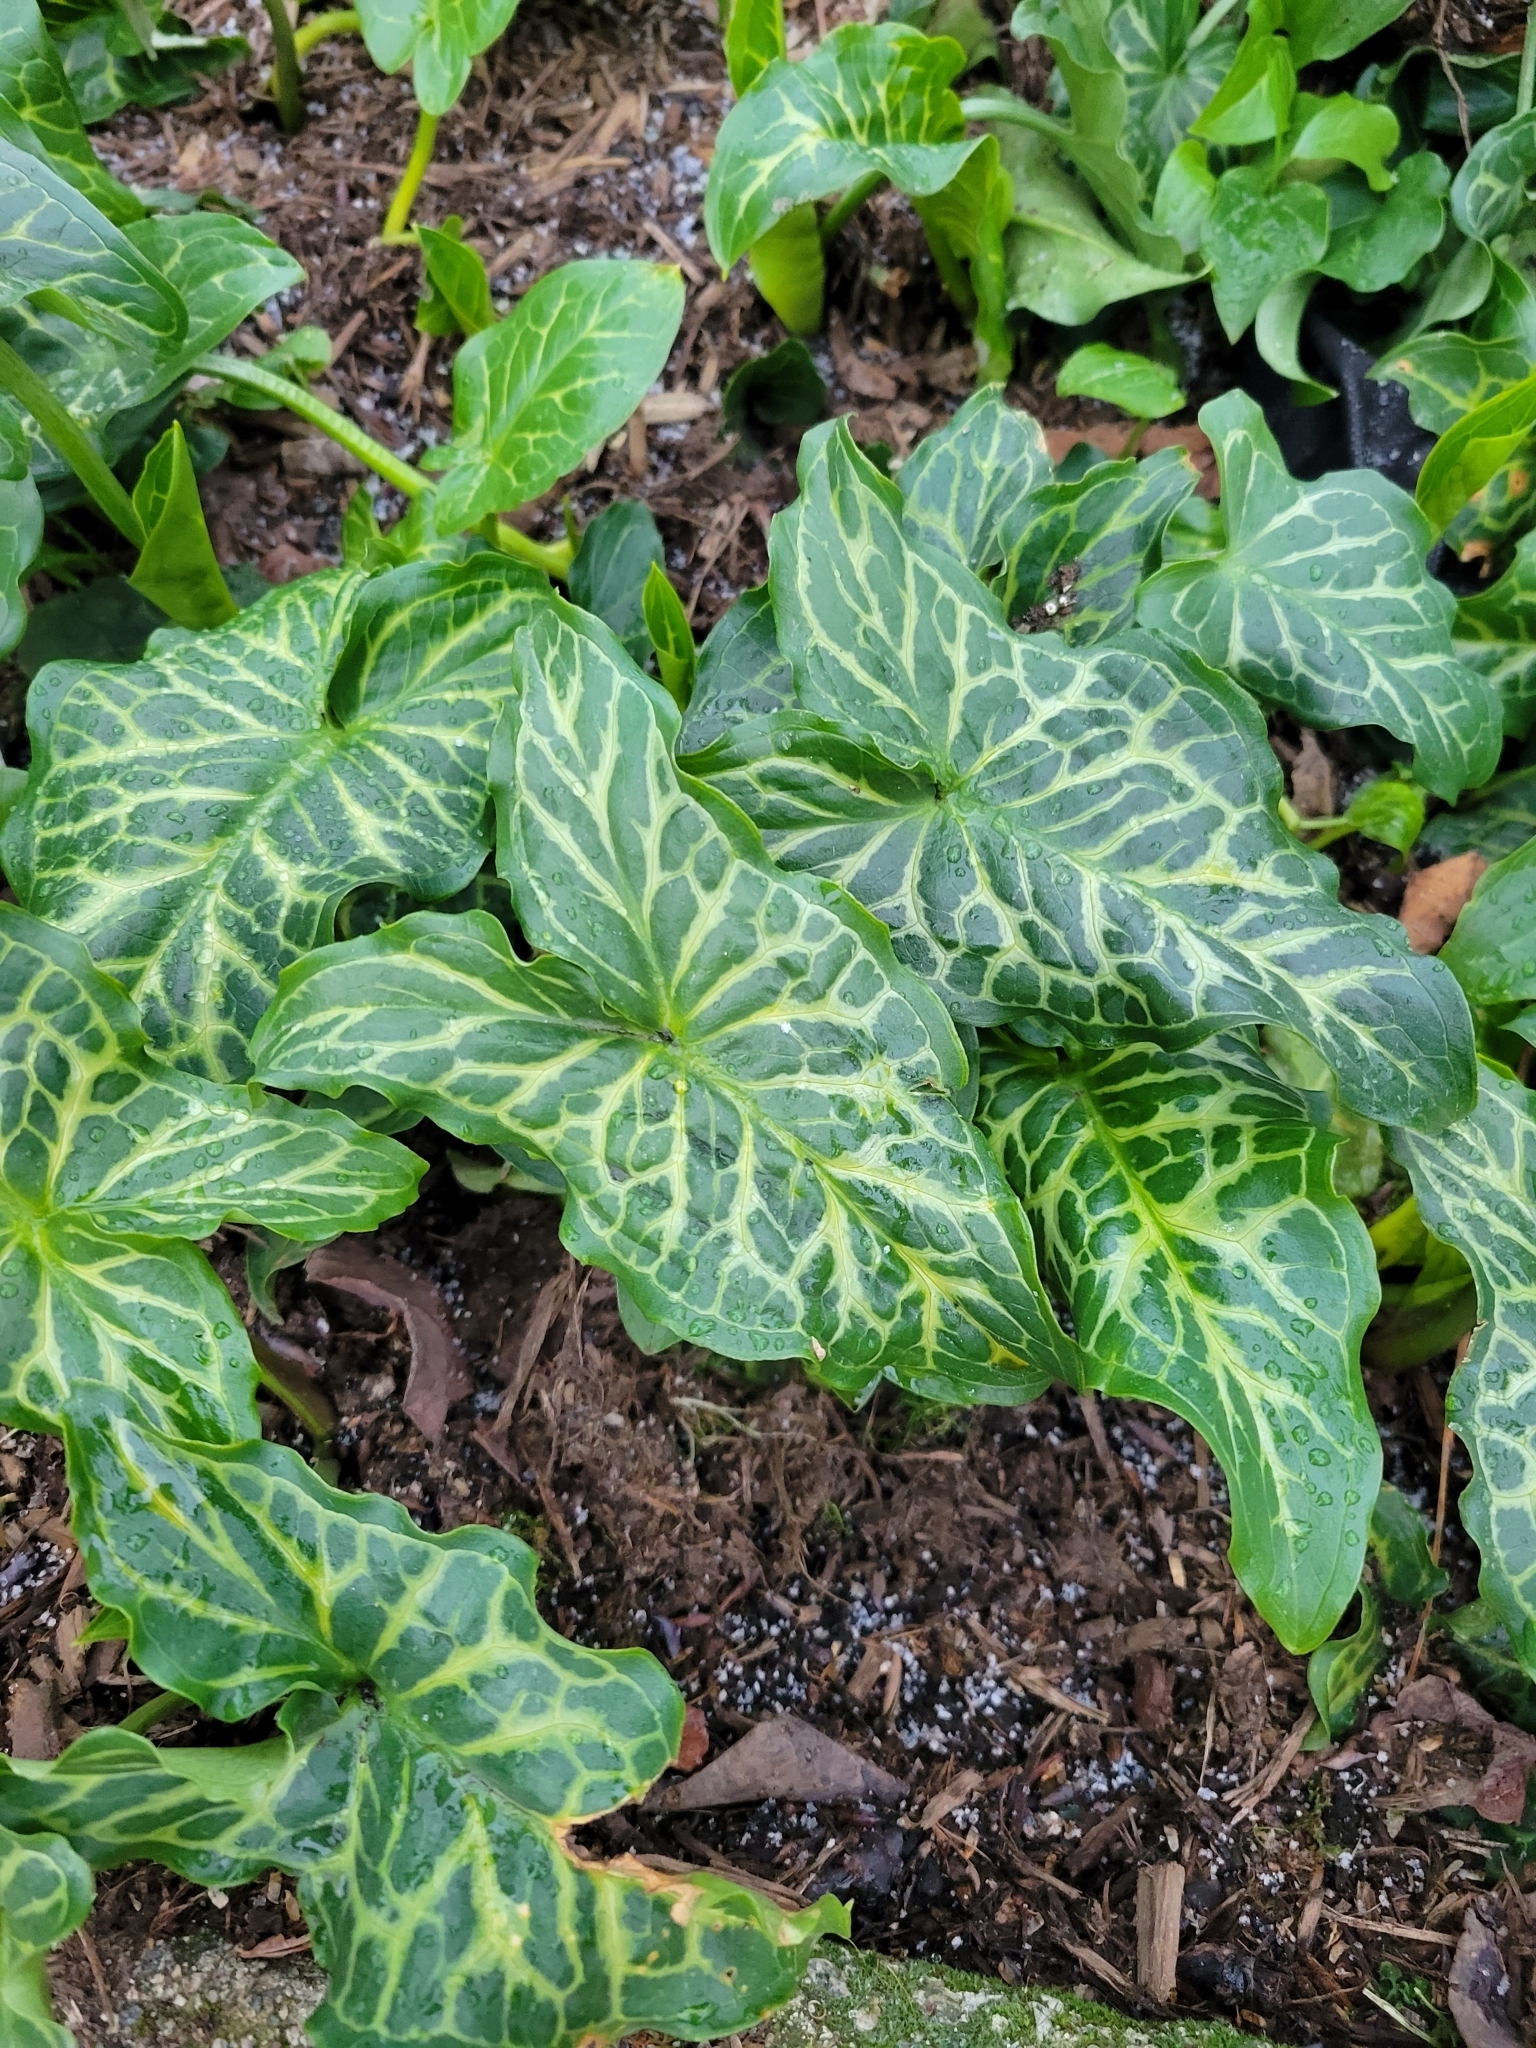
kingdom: Plantae
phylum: Tracheophyta
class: Liliopsida
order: Alismatales
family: Araceae
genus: Arum
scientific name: Arum italicum
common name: Italian lords-and-ladies
